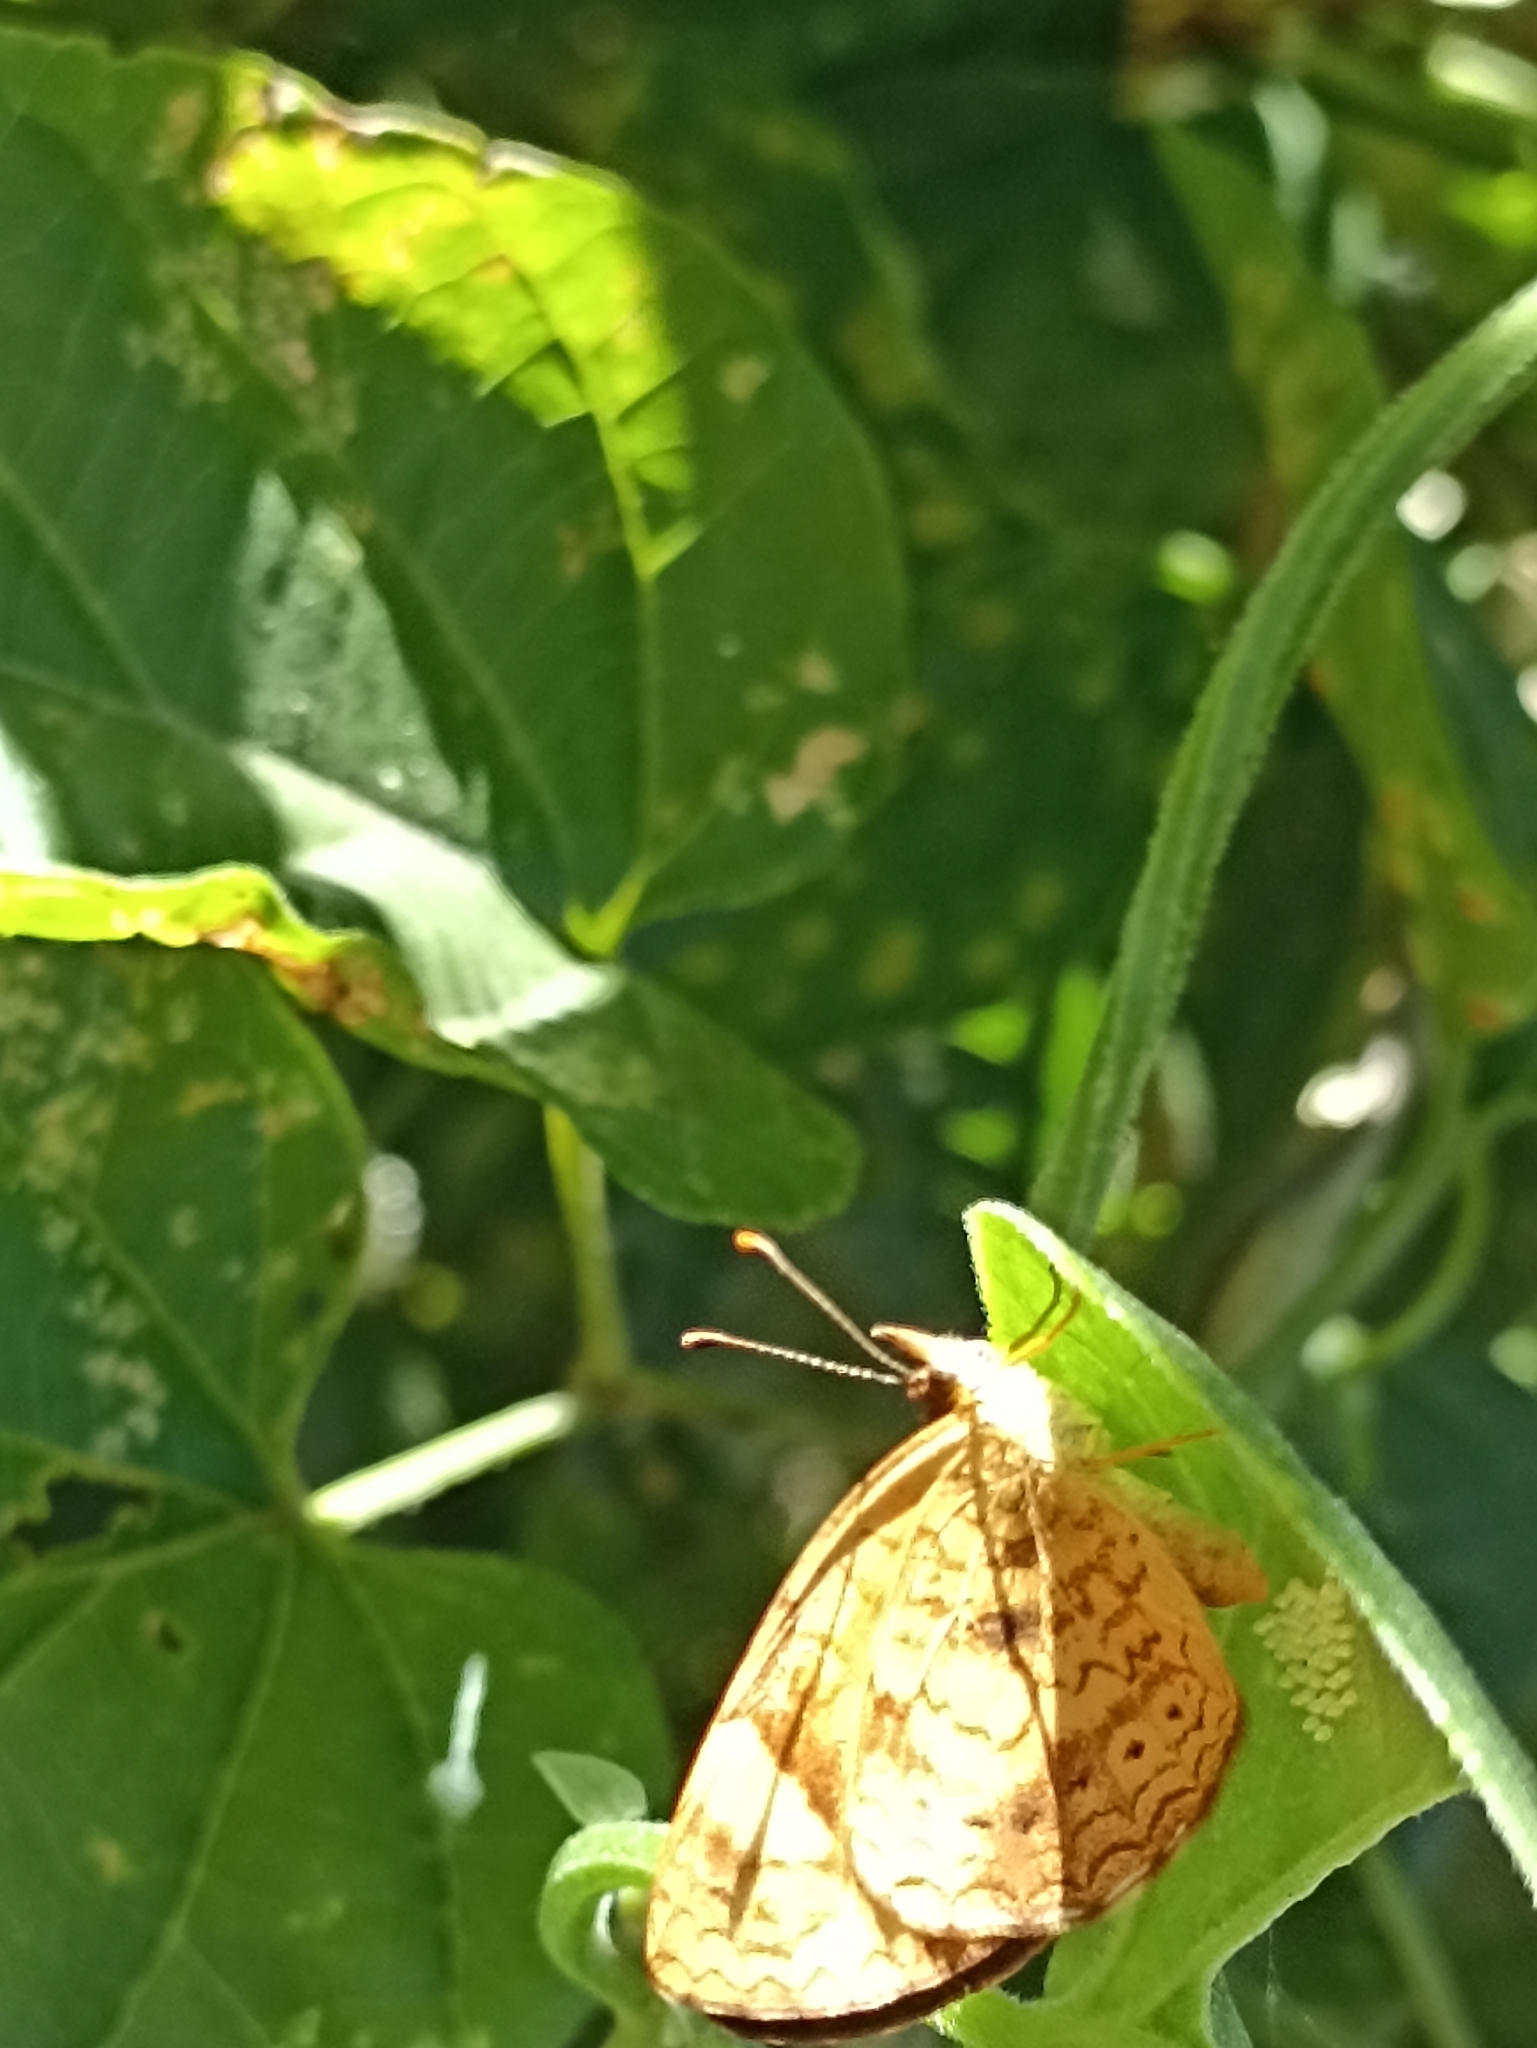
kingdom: Animalia
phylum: Arthropoda
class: Insecta
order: Lepidoptera
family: Nymphalidae
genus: Tegosa
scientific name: Tegosa claudina
